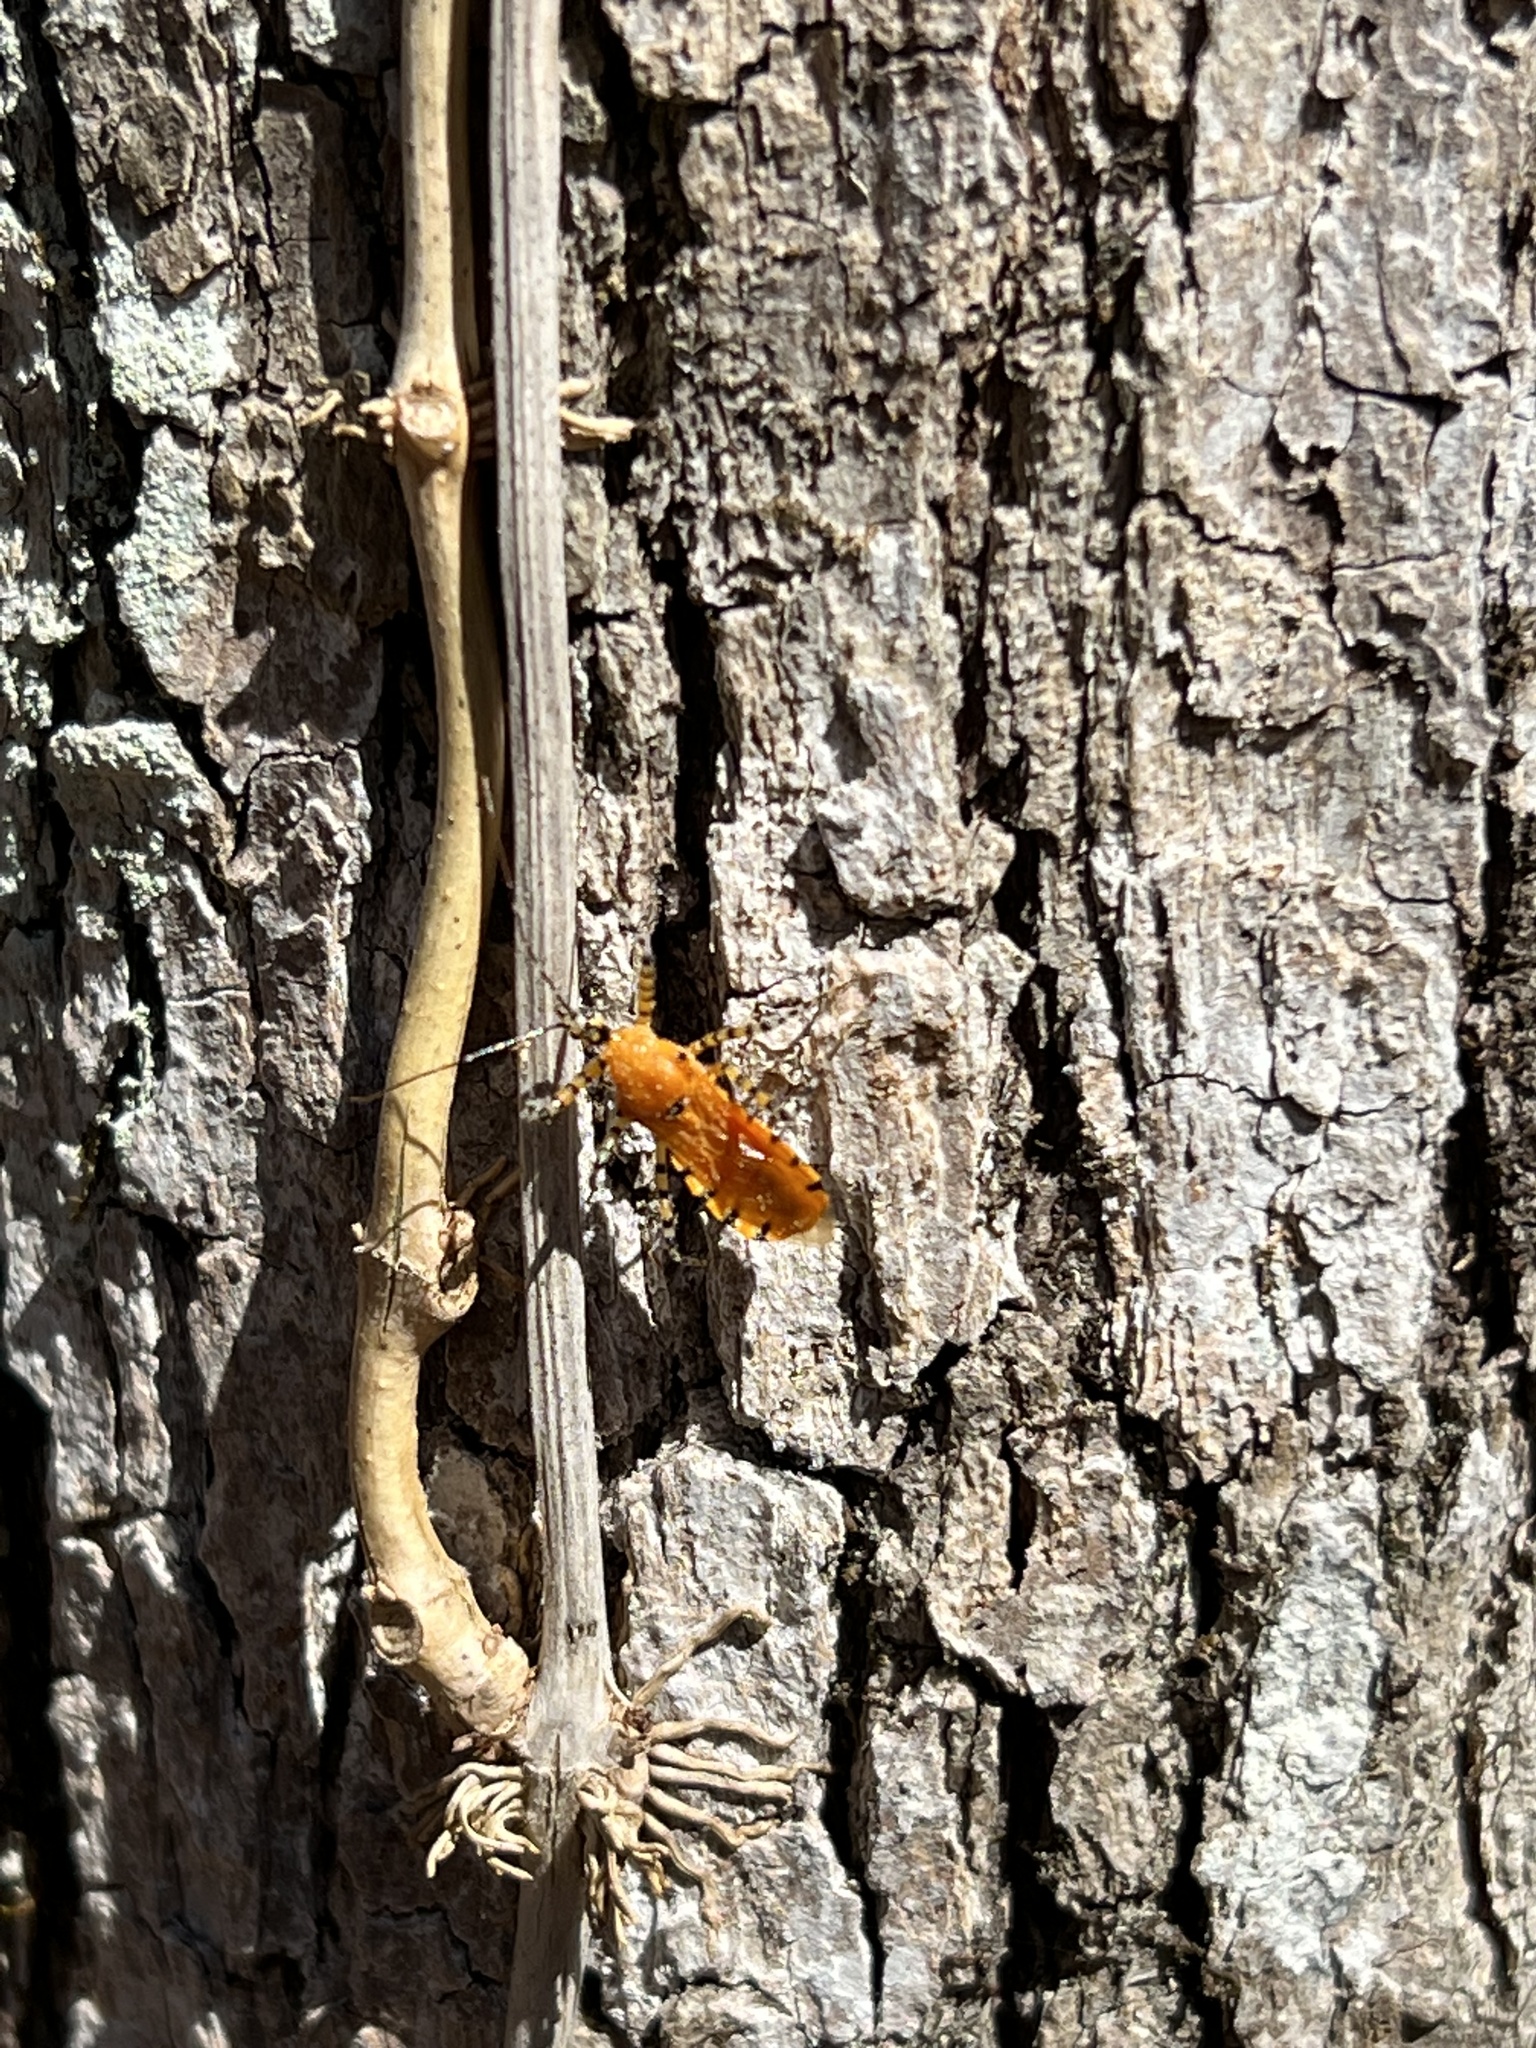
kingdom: Animalia
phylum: Arthropoda
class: Insecta
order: Hemiptera
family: Reduviidae
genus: Pselliopus
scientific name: Pselliopus barberi
